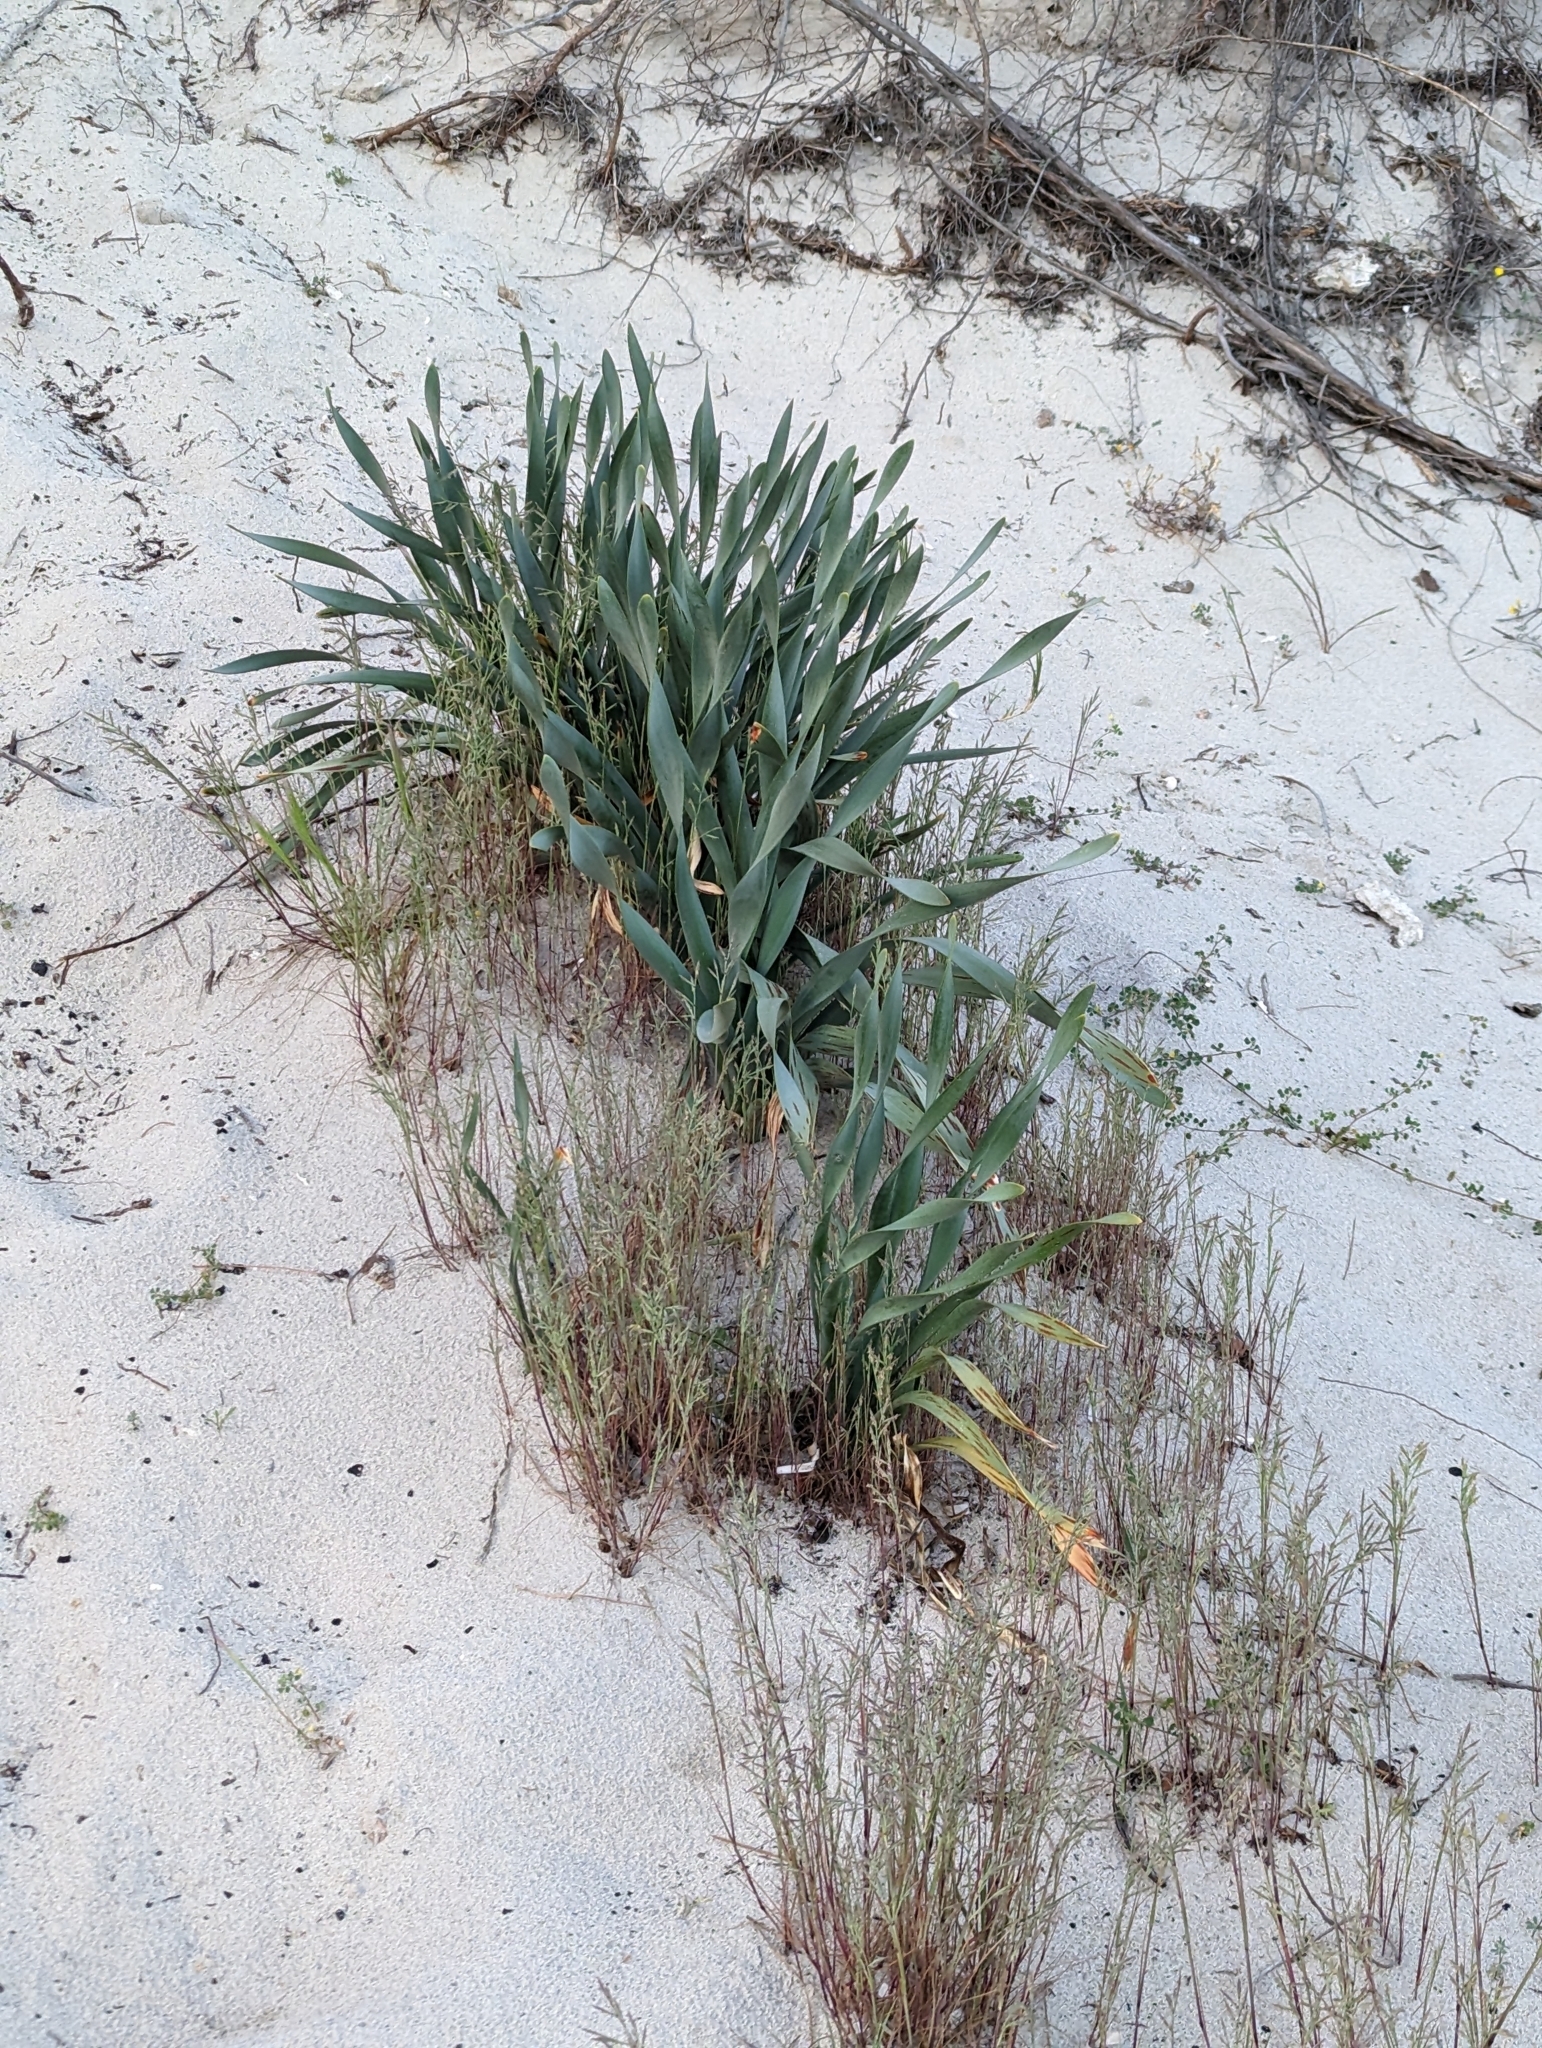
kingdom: Plantae
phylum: Tracheophyta
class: Liliopsida
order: Asparagales
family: Amaryllidaceae
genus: Pancratium
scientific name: Pancratium maritimum
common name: Sea-daffodil
